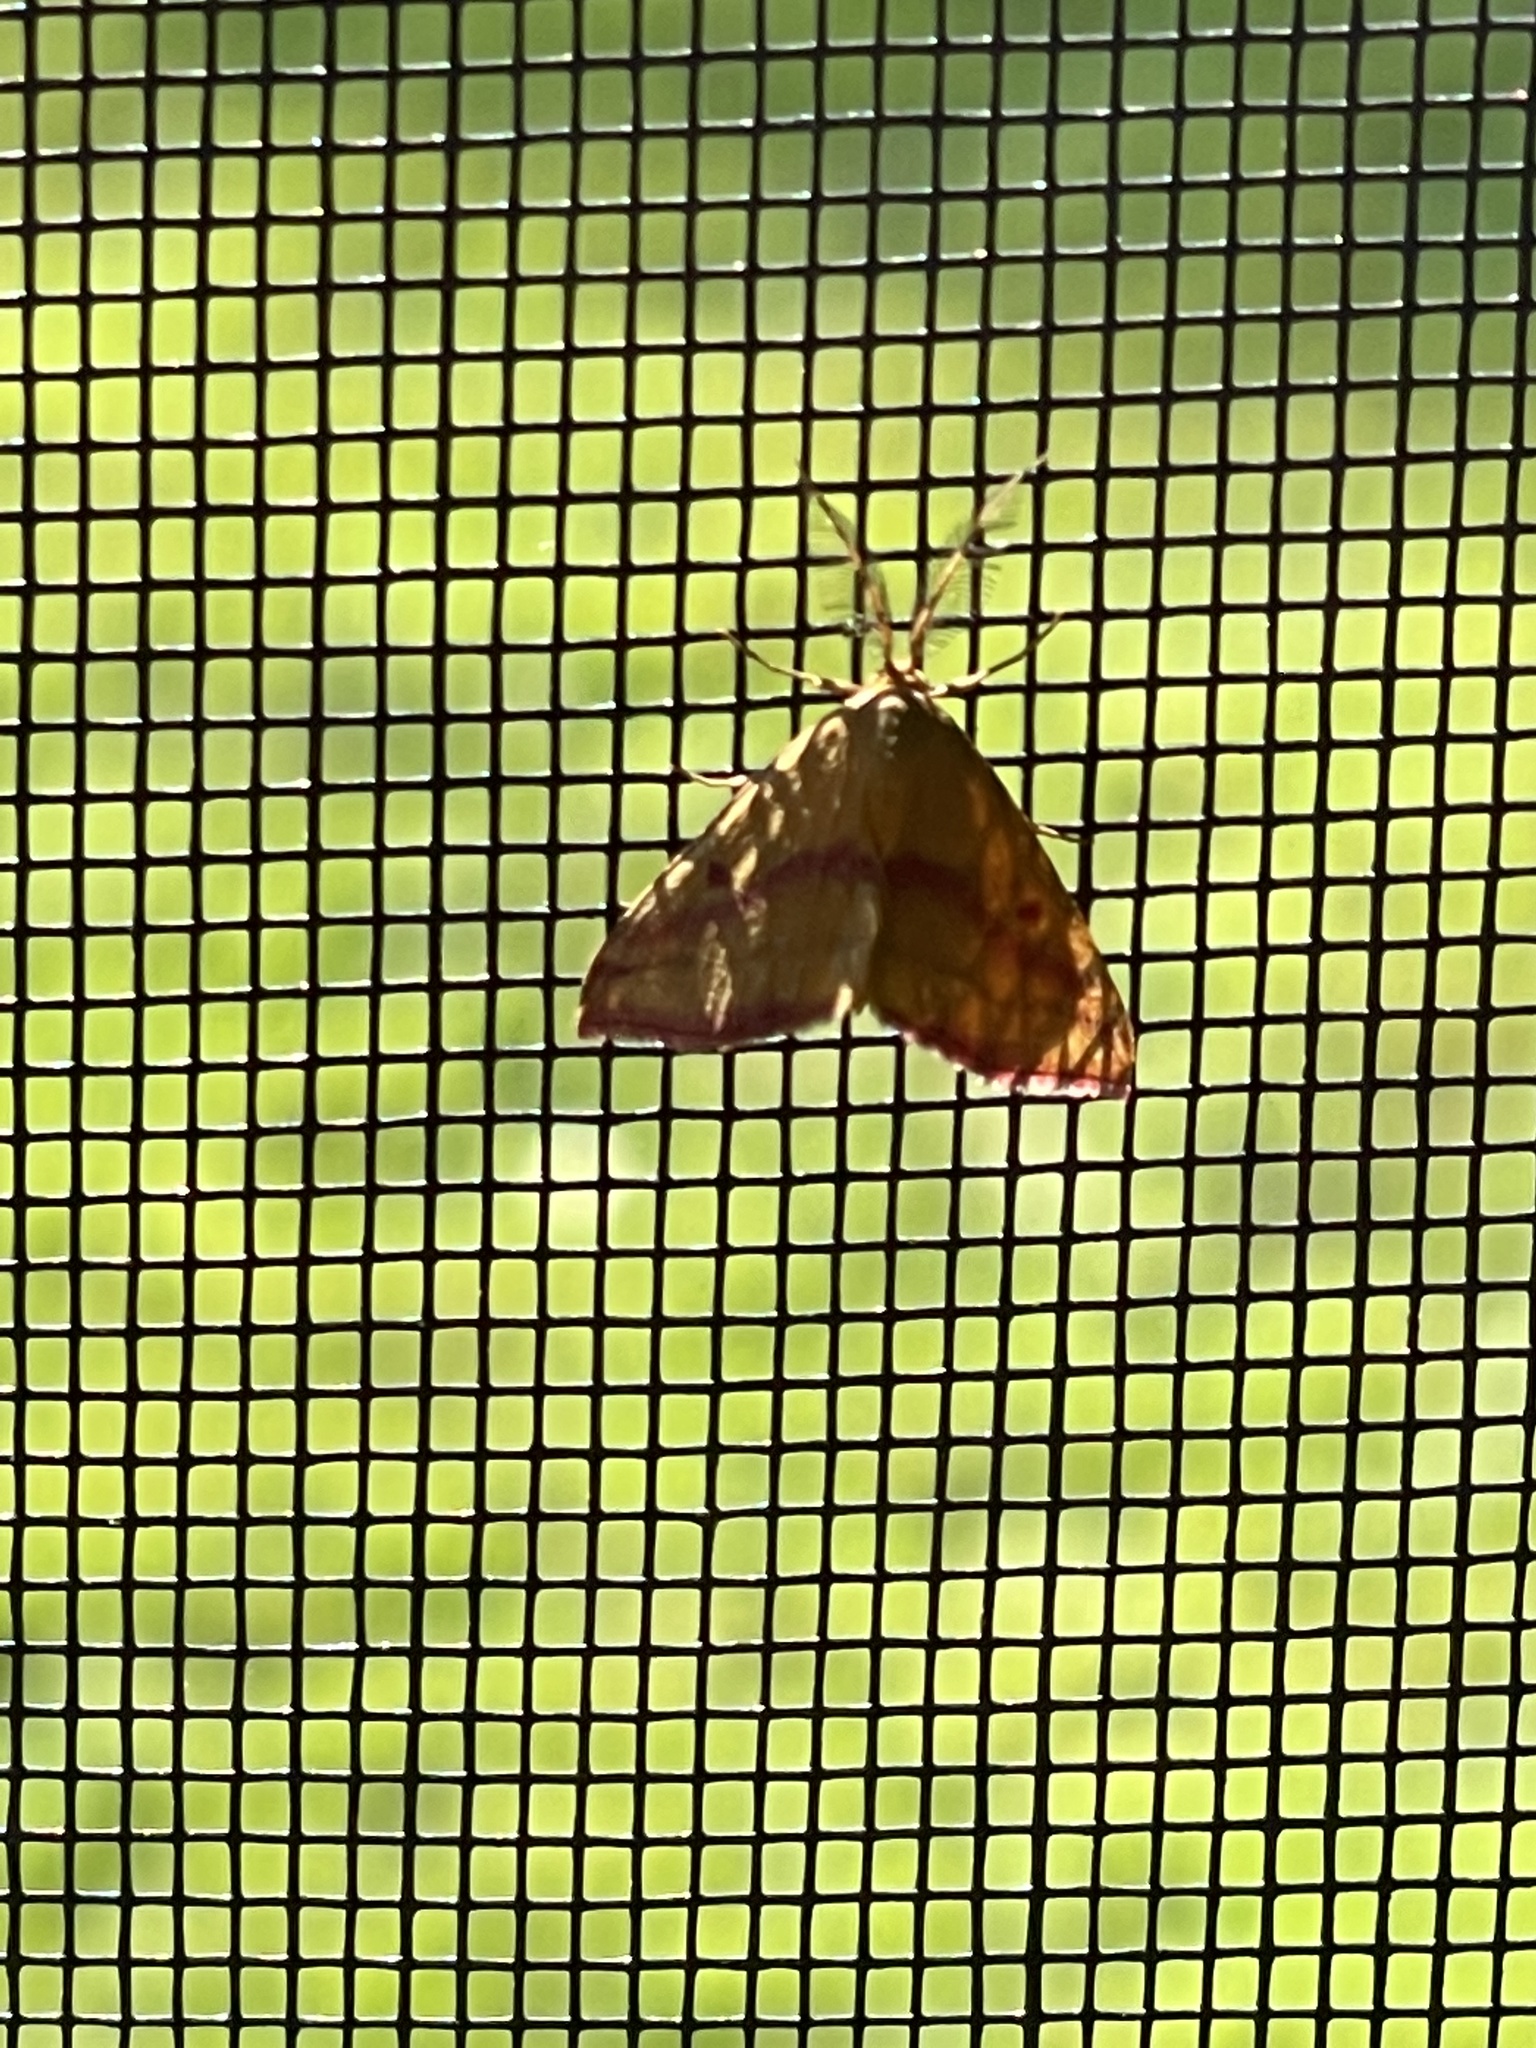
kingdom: Animalia
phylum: Arthropoda
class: Insecta
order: Lepidoptera
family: Geometridae
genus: Haematopis
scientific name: Haematopis grataria
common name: Chickweed geometer
